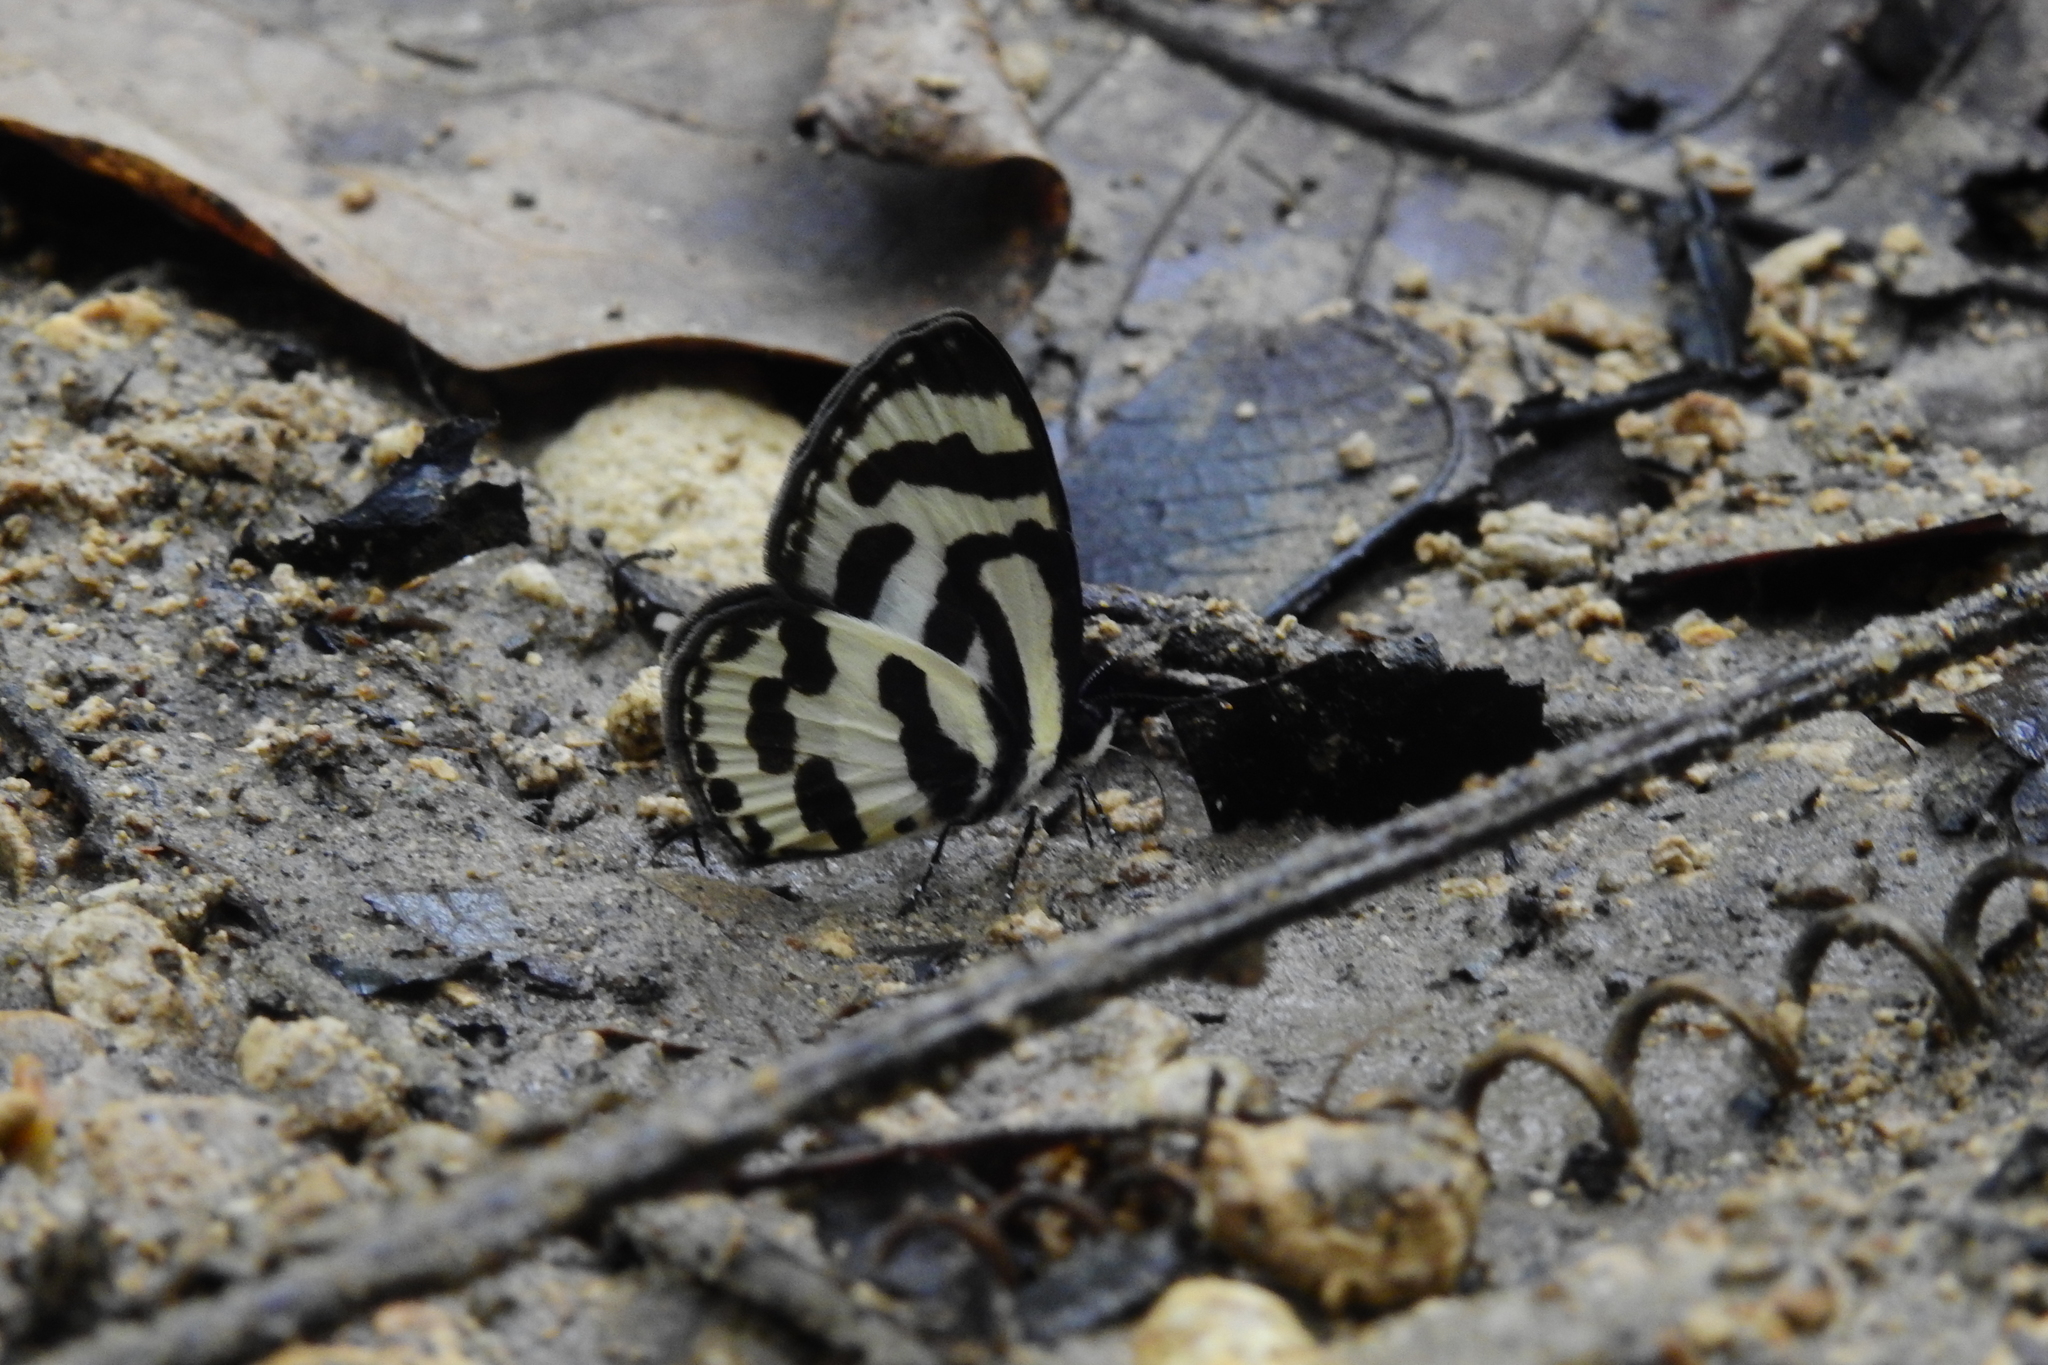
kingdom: Animalia
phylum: Arthropoda
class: Insecta
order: Lepidoptera
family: Lycaenidae
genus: Caleta
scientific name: Caleta caleta
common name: Angled pierrot
